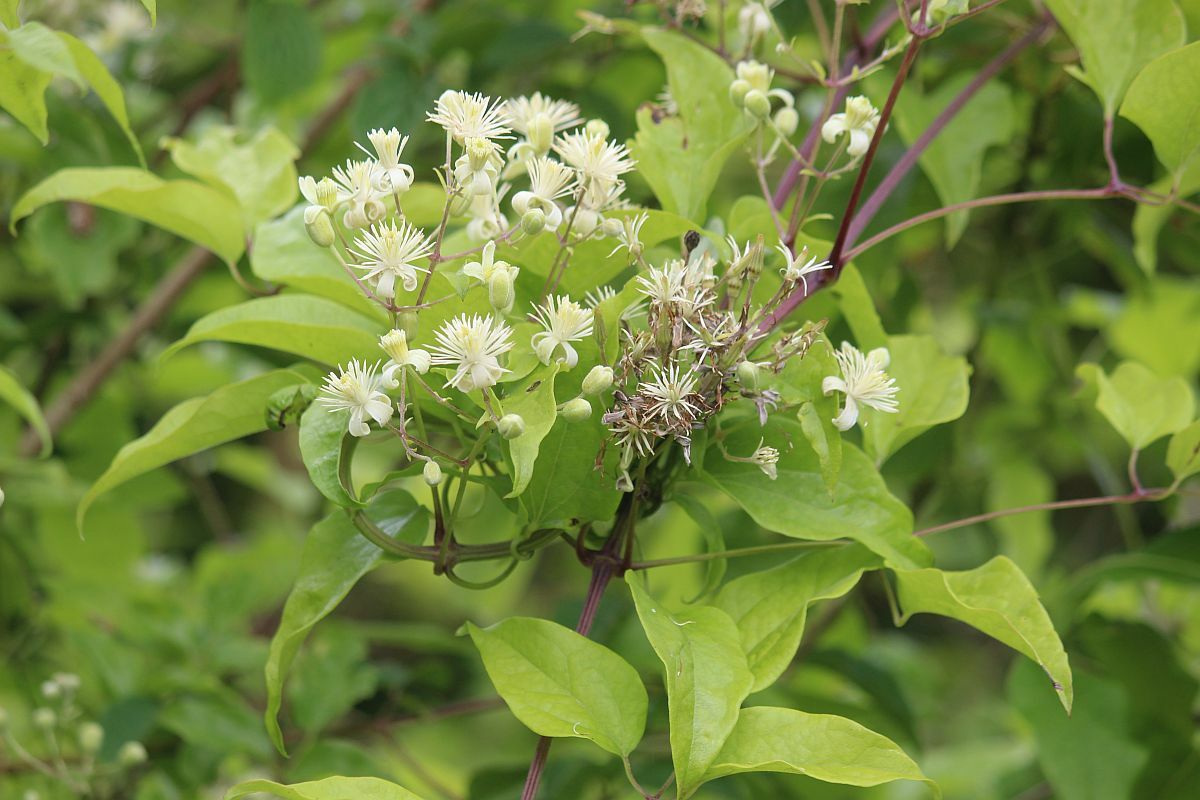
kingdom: Plantae
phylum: Tracheophyta
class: Magnoliopsida
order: Ranunculales
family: Ranunculaceae
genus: Clematis
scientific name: Clematis vitalba
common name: Evergreen clematis
